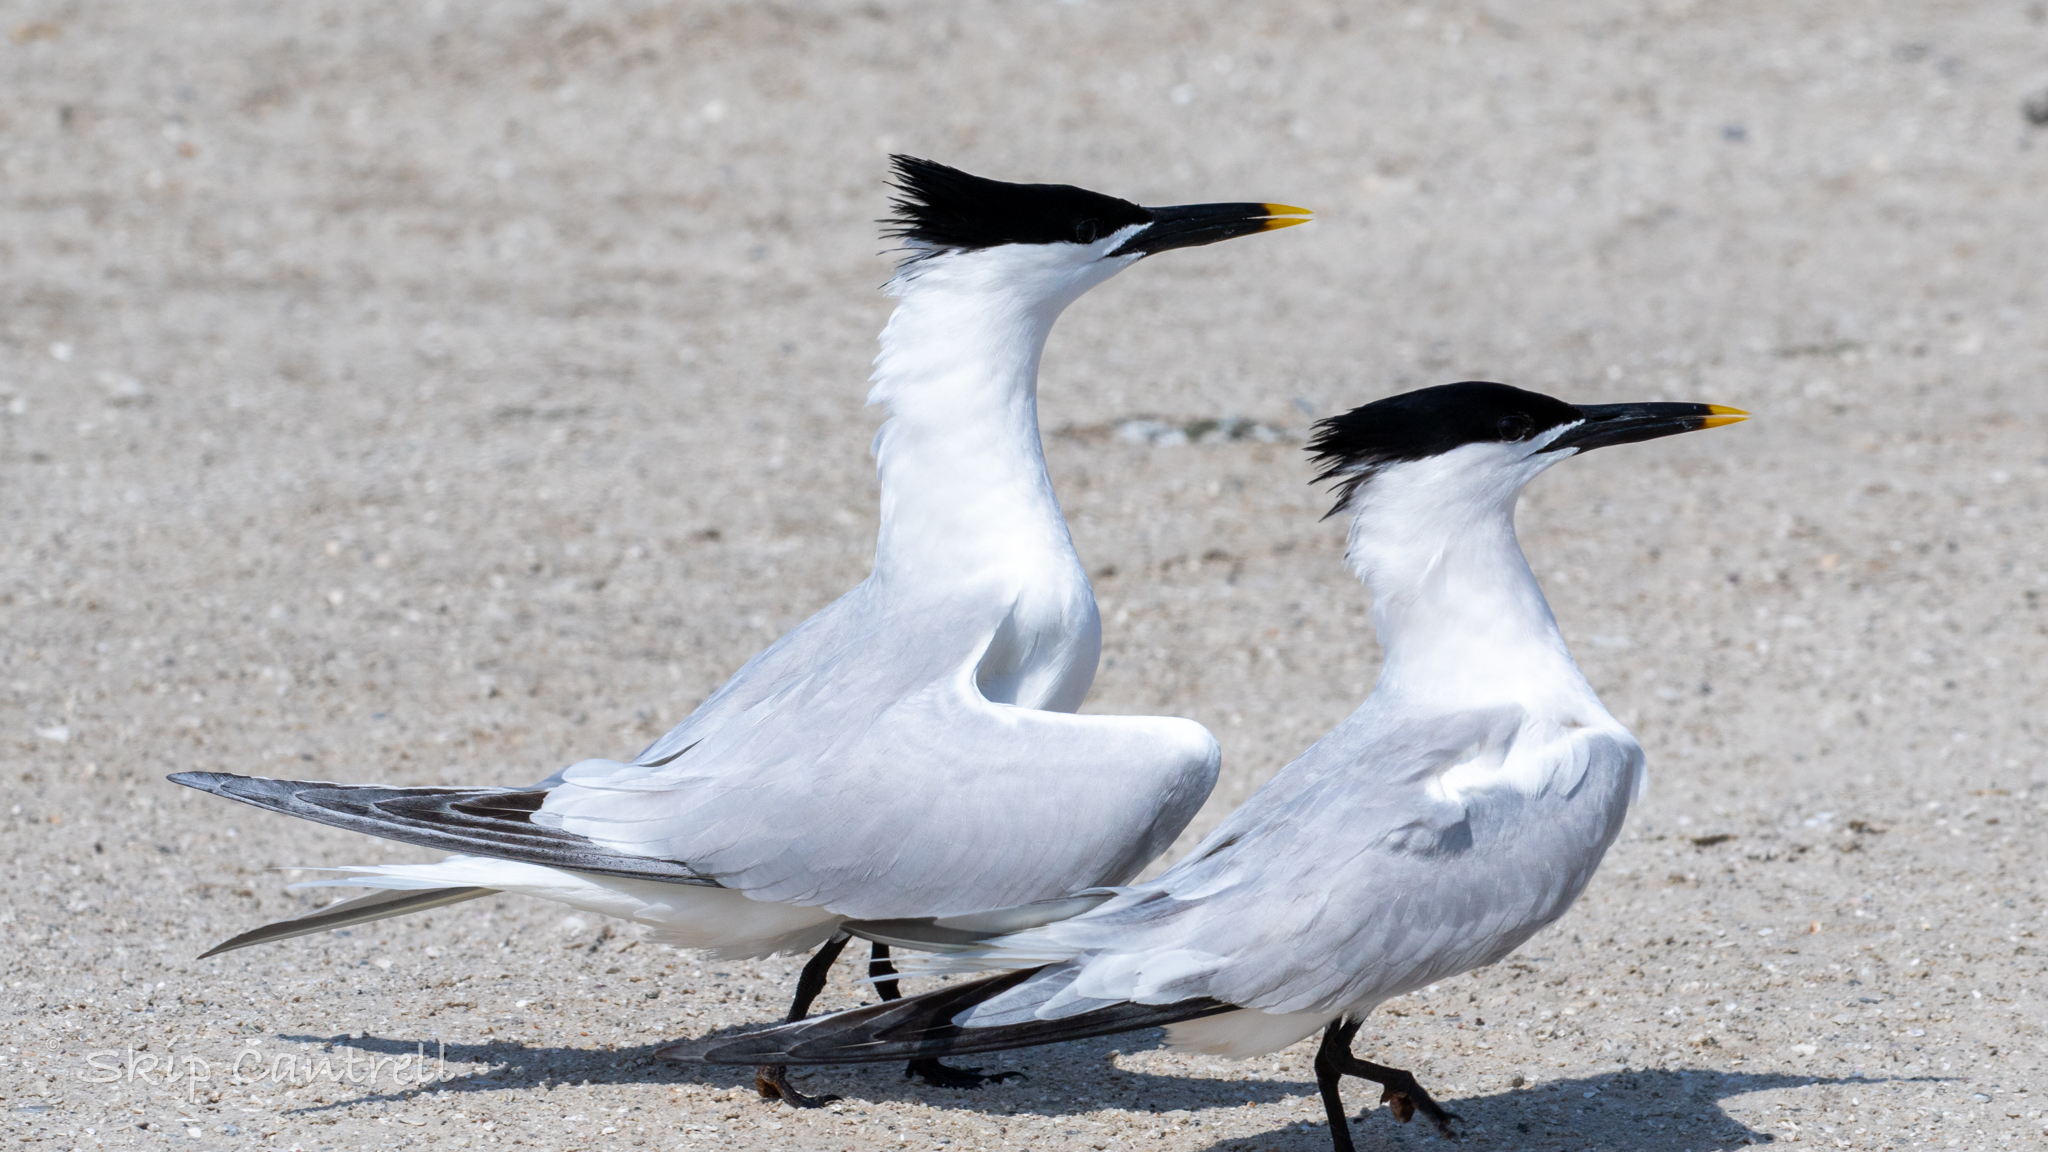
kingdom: Animalia
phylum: Chordata
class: Aves
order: Charadriiformes
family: Laridae
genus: Thalasseus
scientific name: Thalasseus sandvicensis
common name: Sandwich tern
